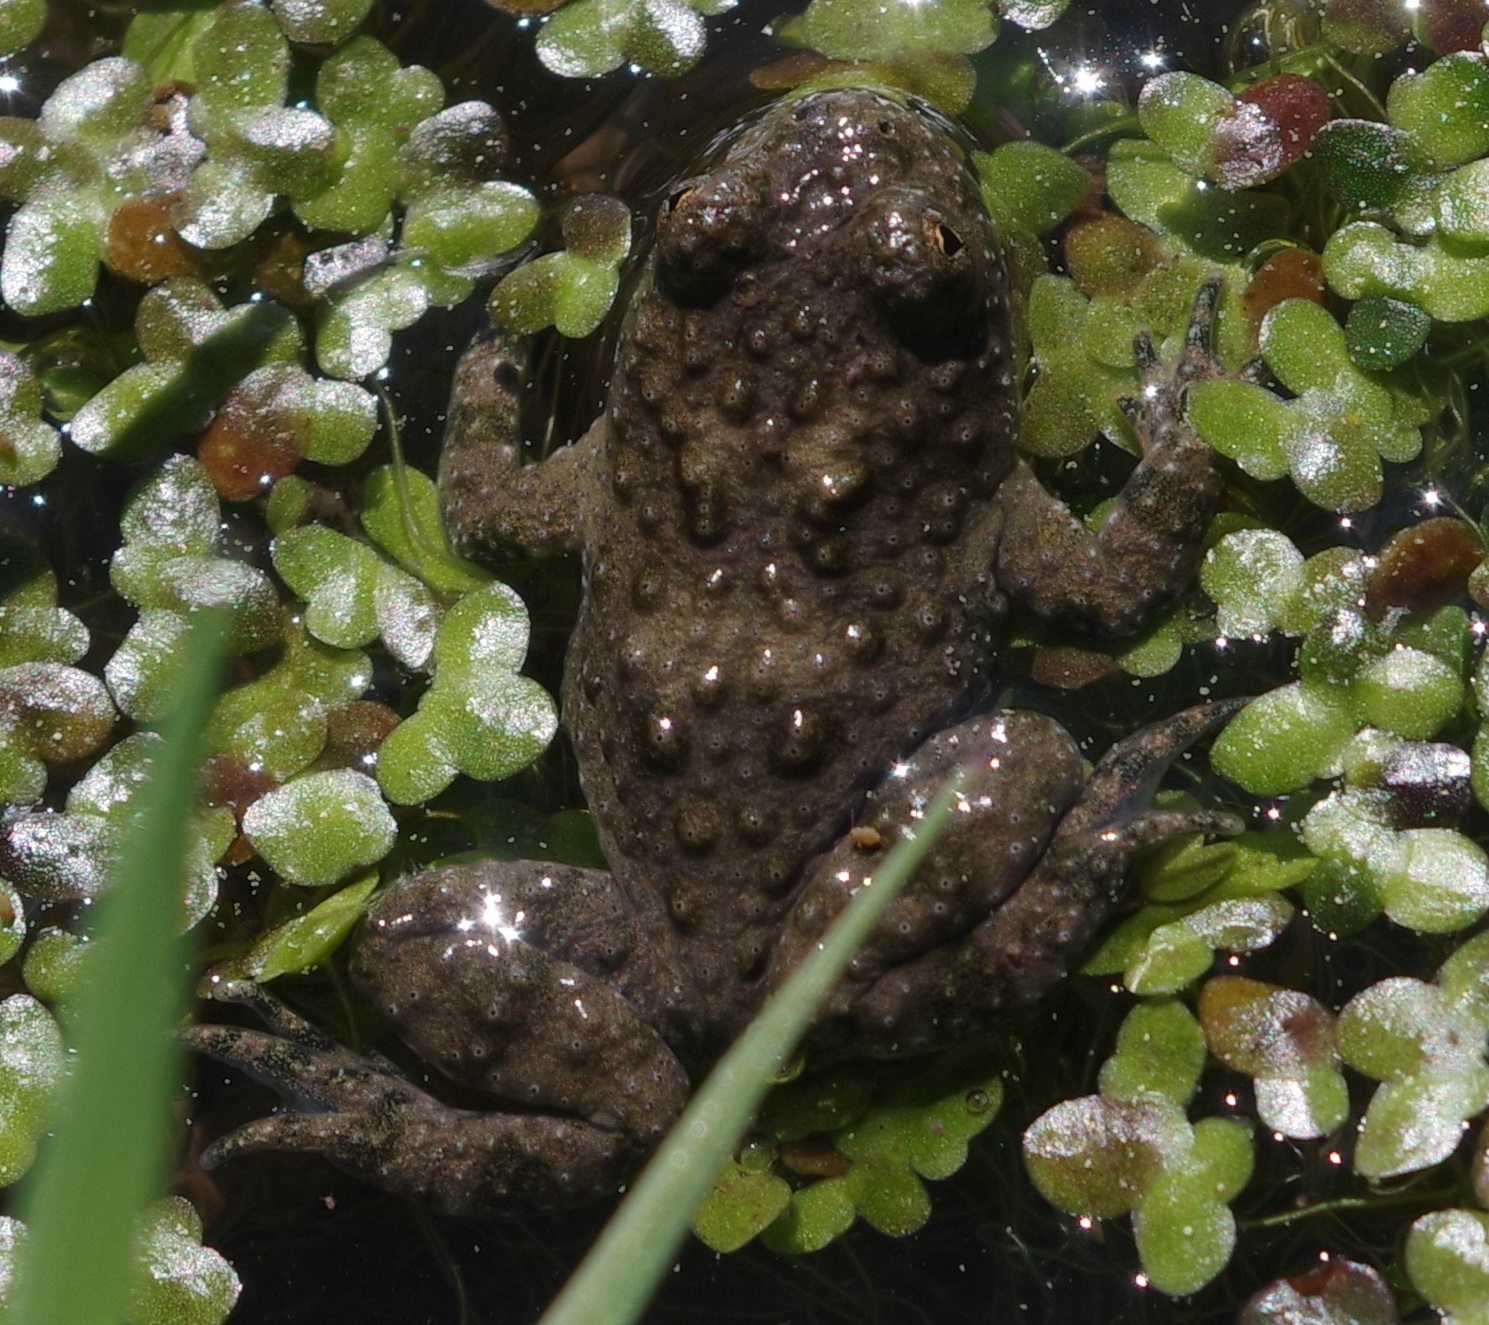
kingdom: Animalia
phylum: Chordata
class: Amphibia
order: Anura
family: Bombinatoridae
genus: Bombina
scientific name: Bombina variegata
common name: Yellow-bellied toad
